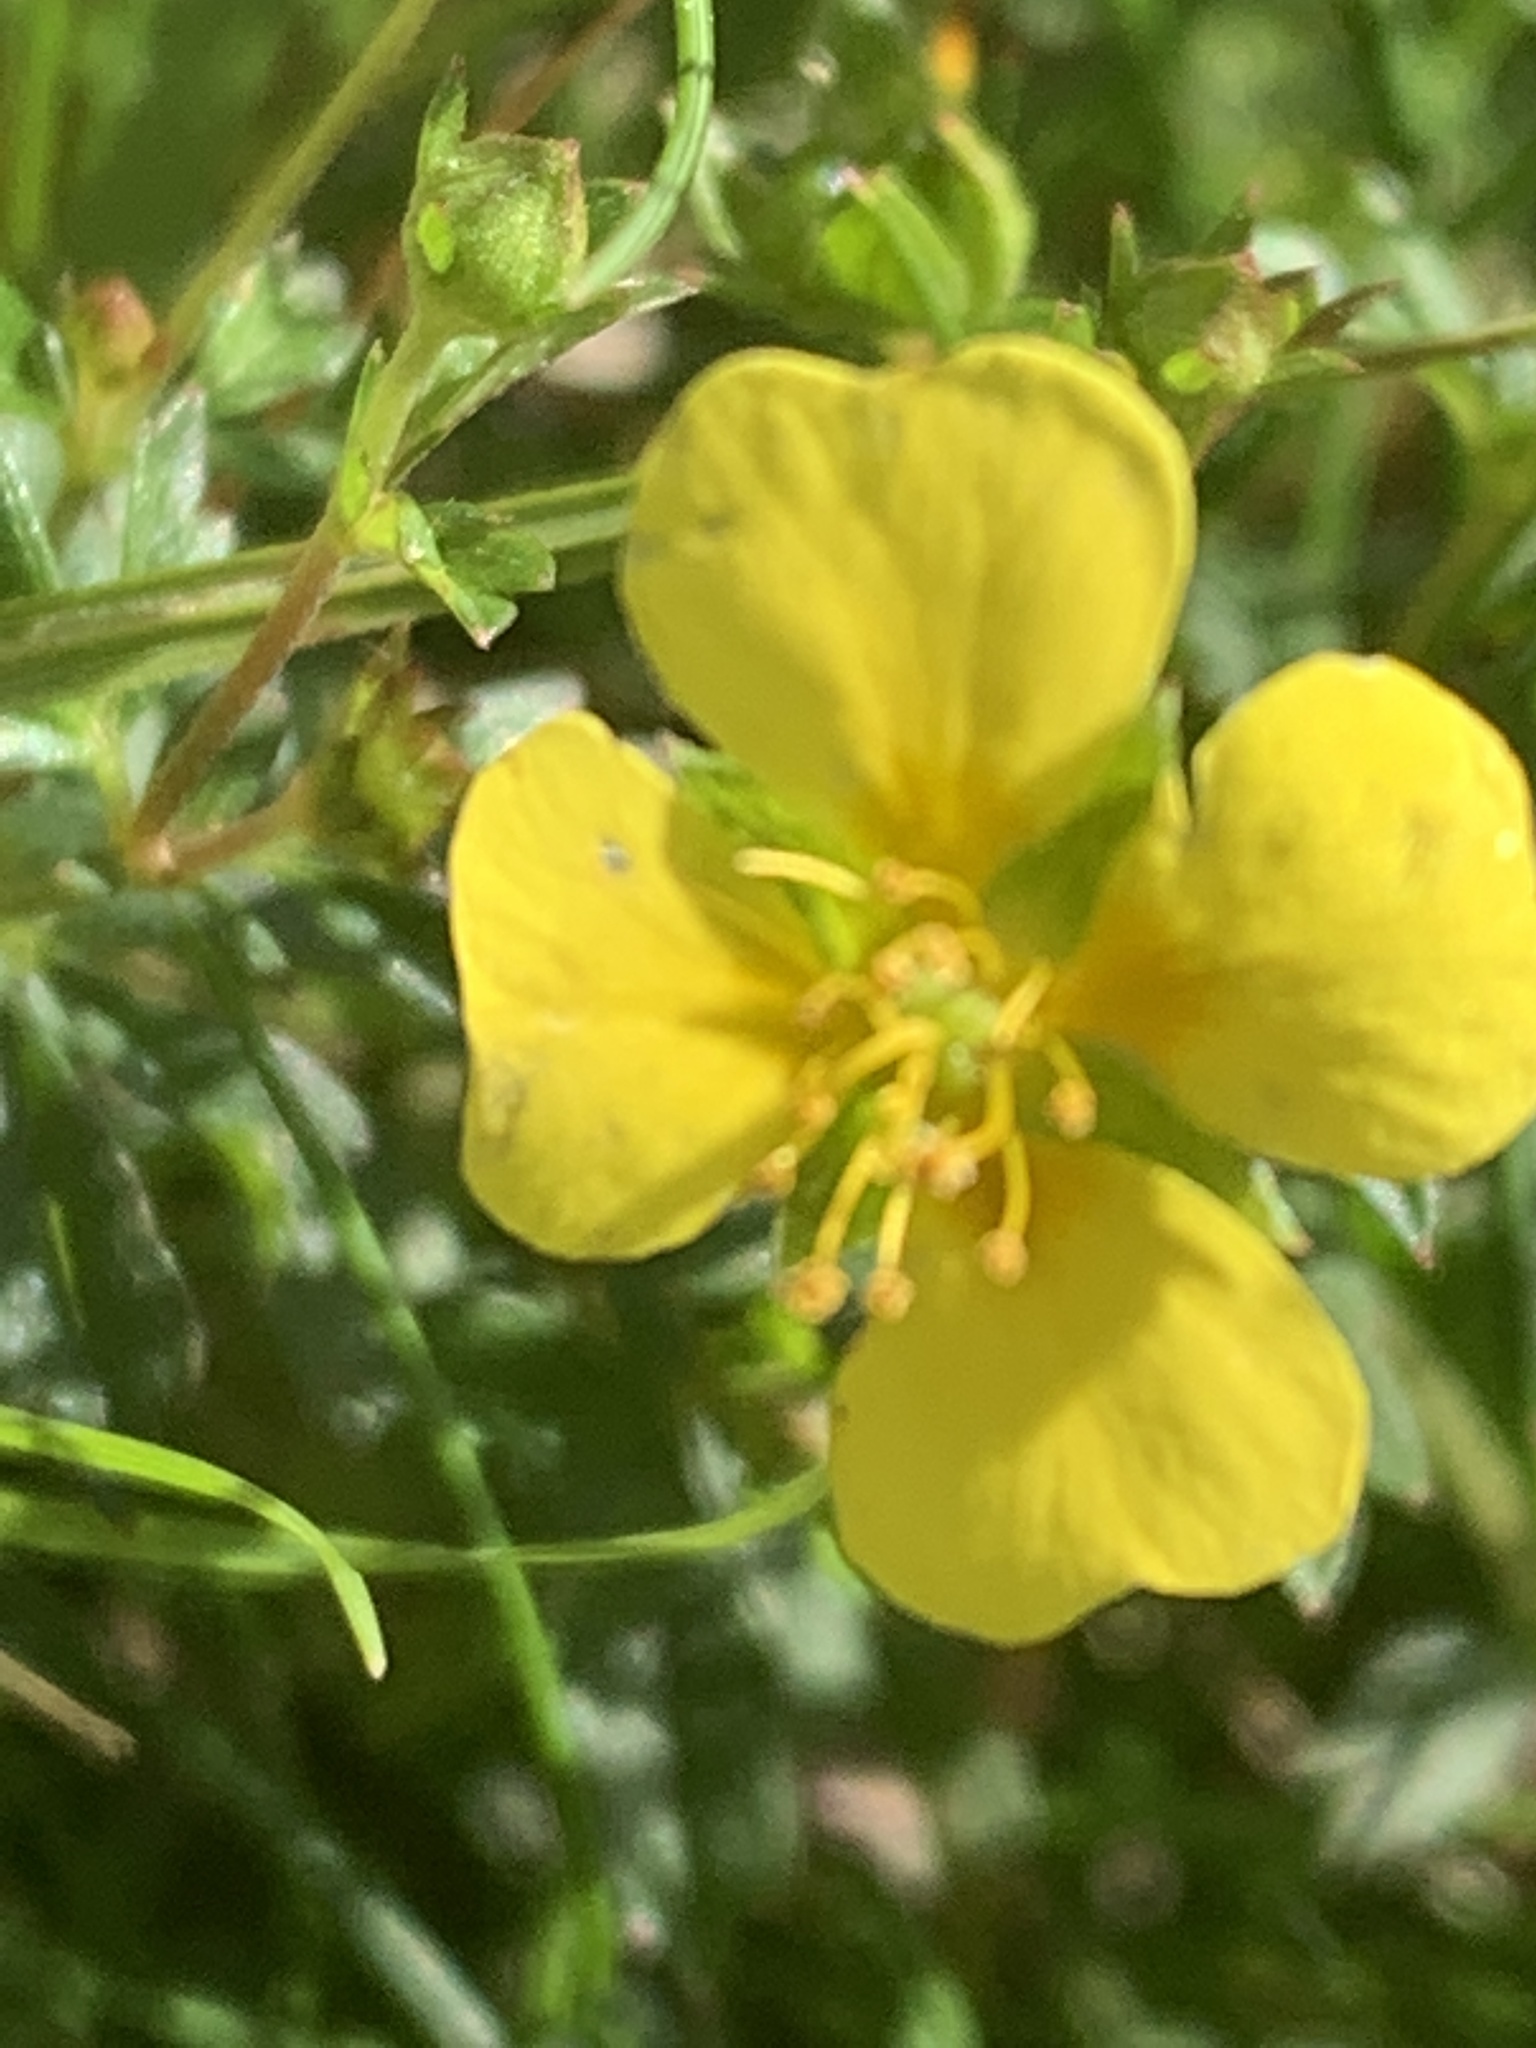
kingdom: Plantae
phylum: Tracheophyta
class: Magnoliopsida
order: Rosales
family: Rosaceae
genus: Potentilla
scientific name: Potentilla erecta
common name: Tormentil
